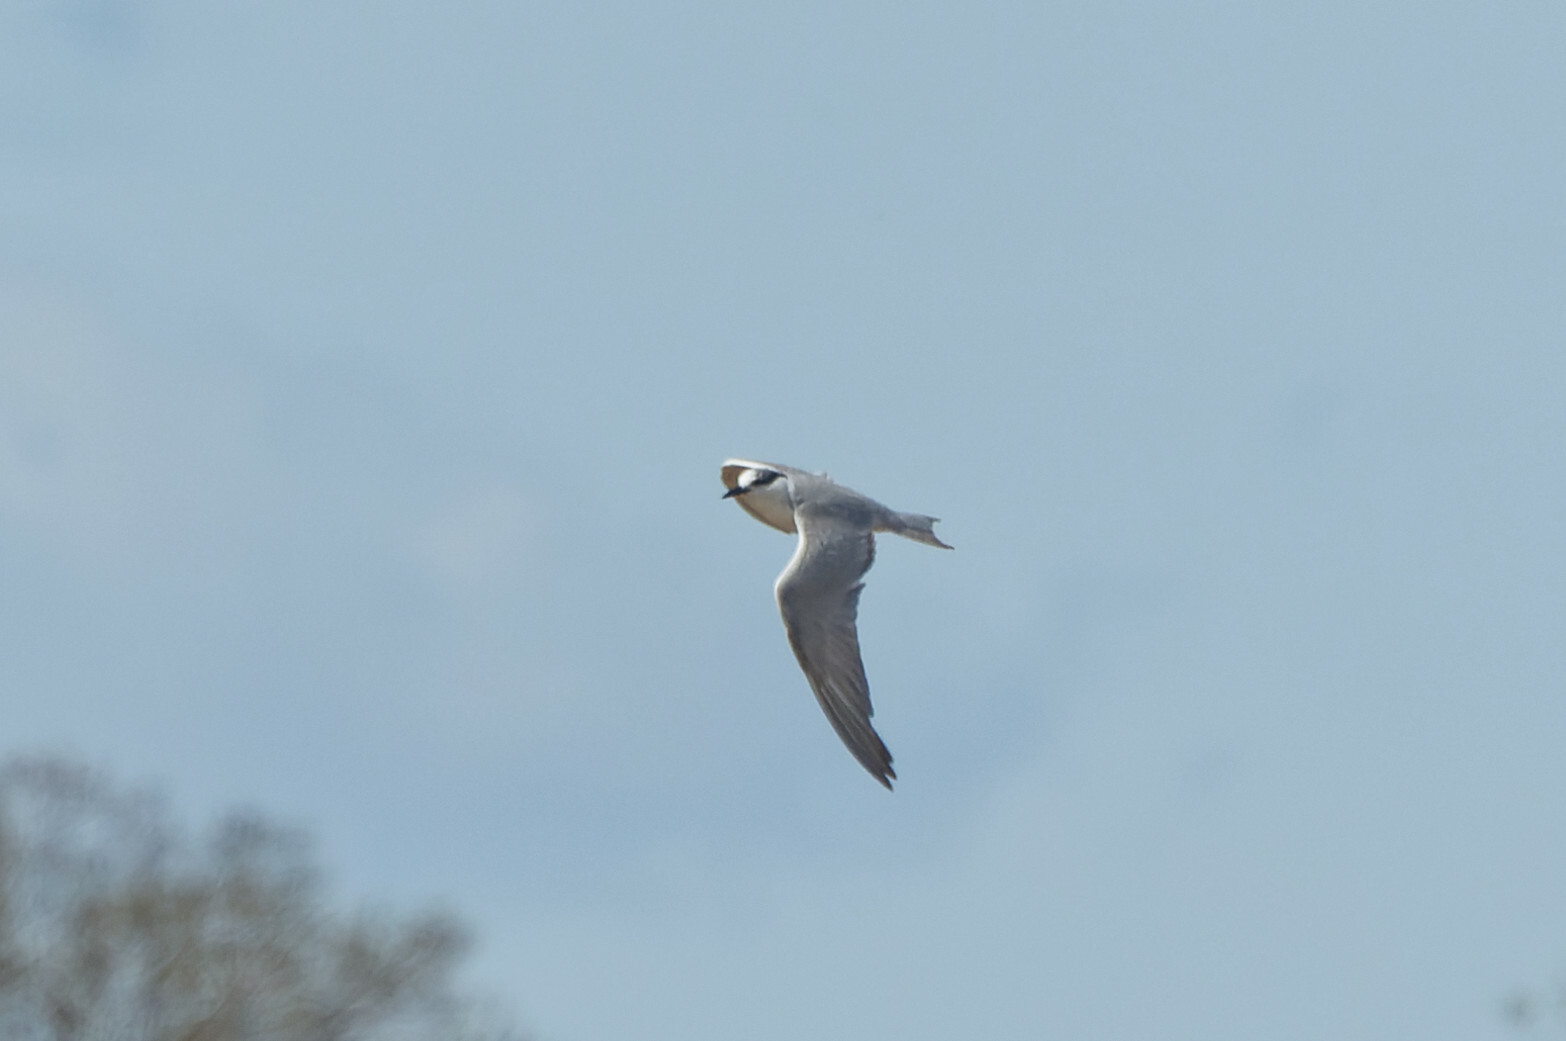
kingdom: Animalia
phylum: Chordata
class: Aves
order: Charadriiformes
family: Laridae
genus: Chlidonias
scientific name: Chlidonias hybrida
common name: Whiskered tern
